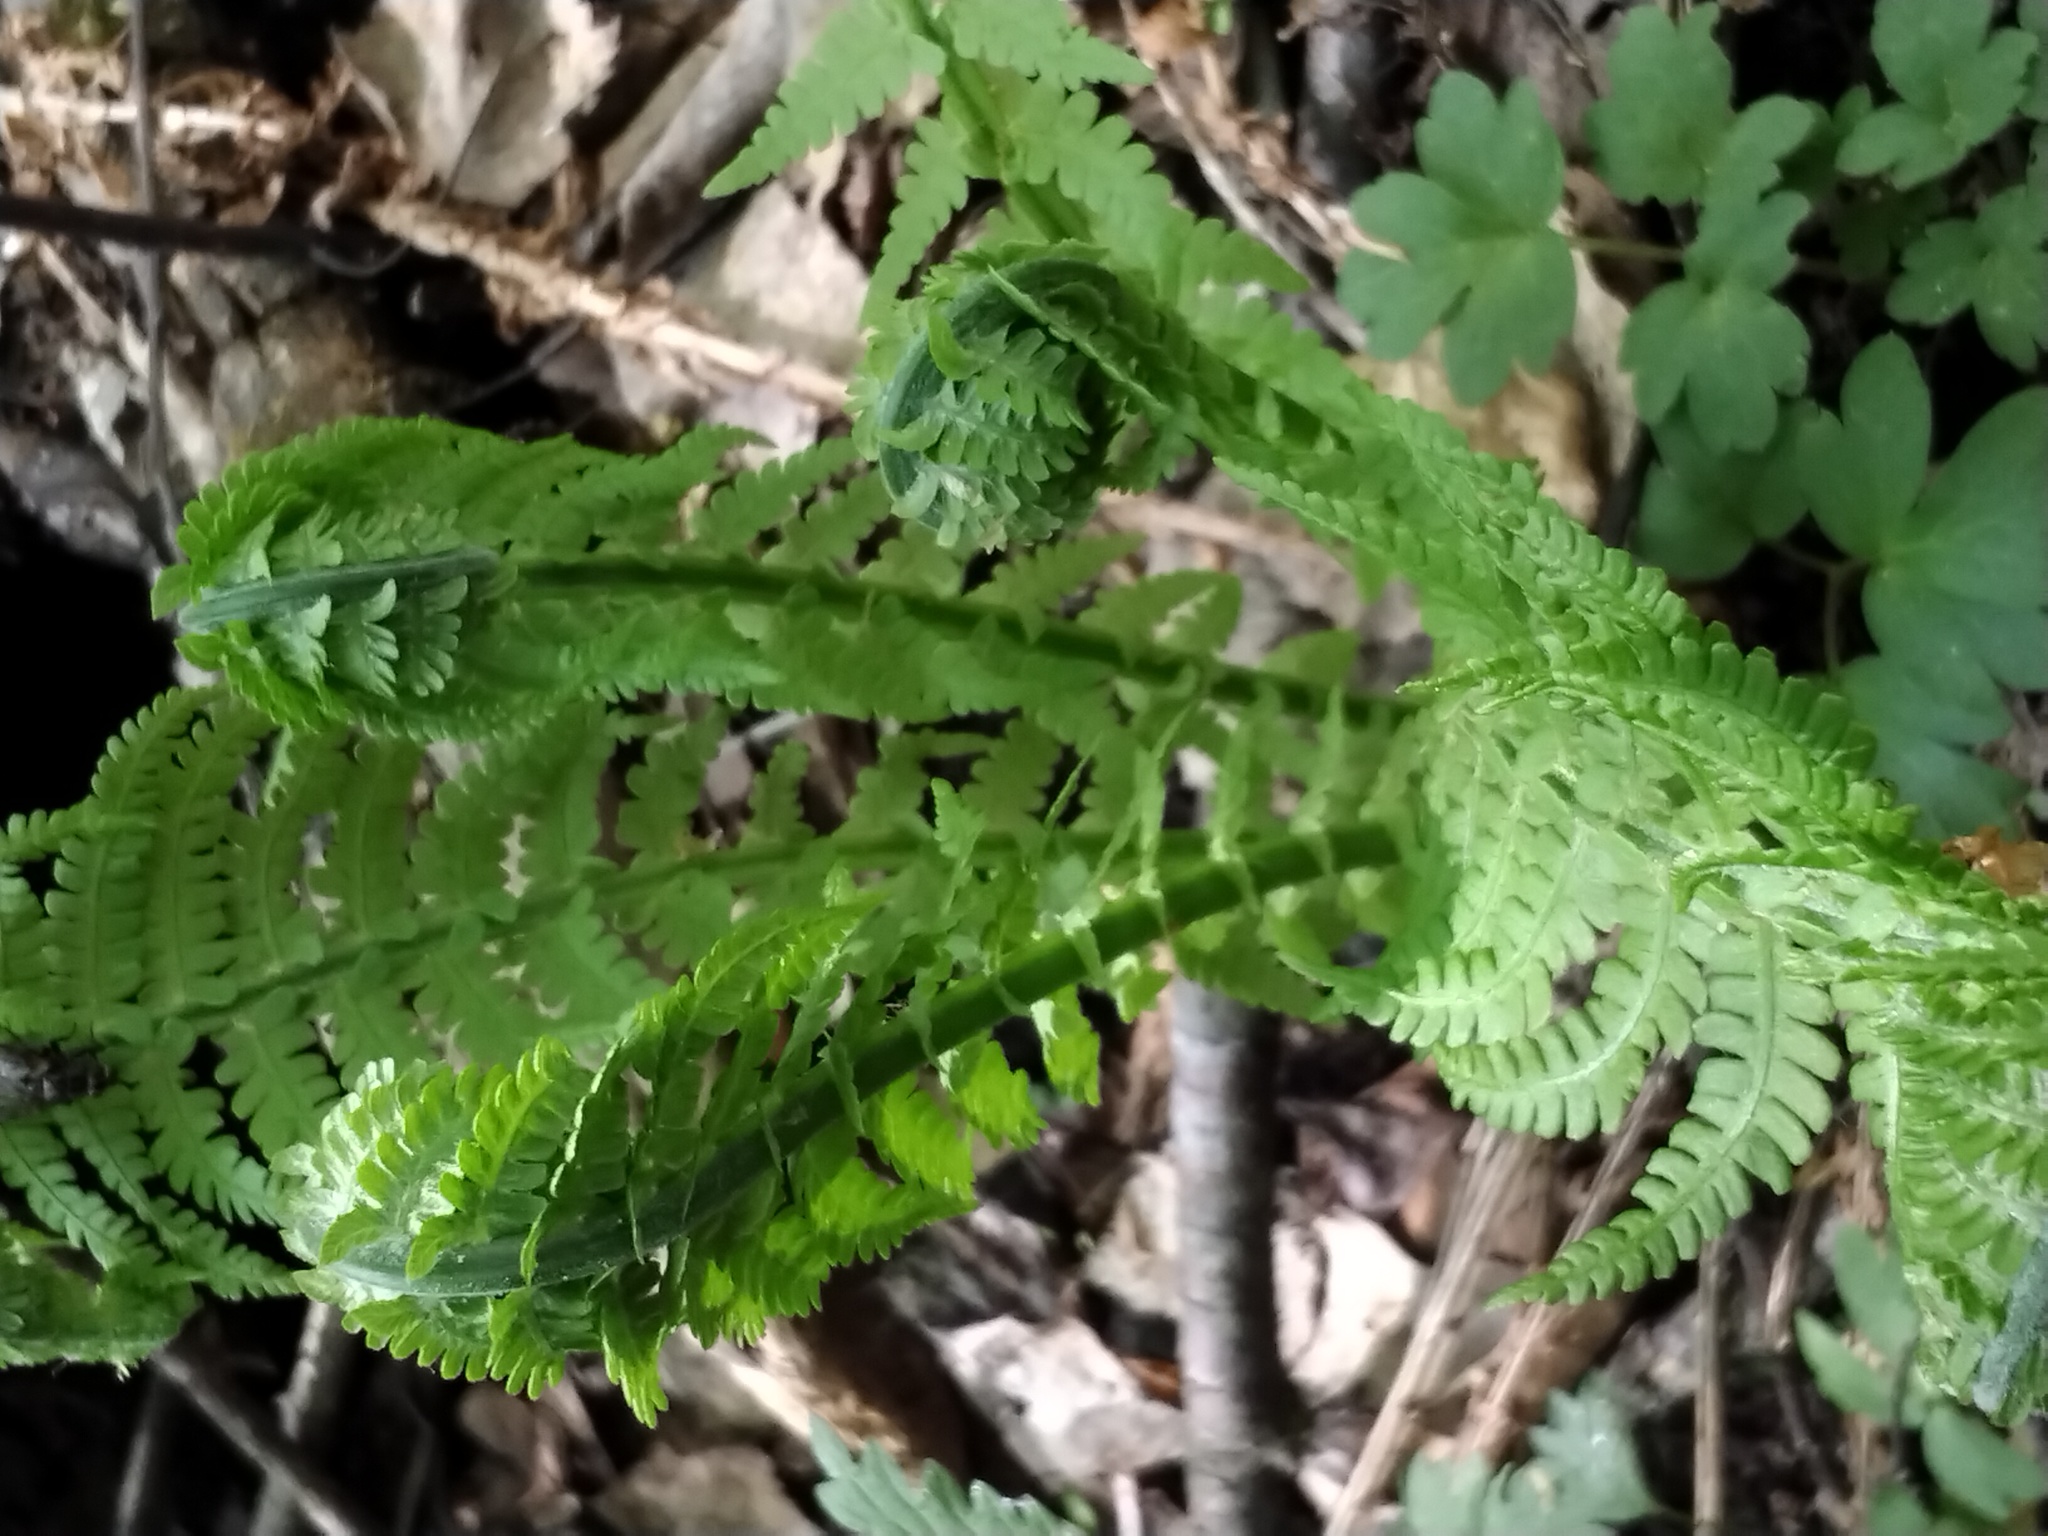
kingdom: Plantae
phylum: Tracheophyta
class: Polypodiopsida
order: Polypodiales
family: Onocleaceae
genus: Matteuccia
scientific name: Matteuccia struthiopteris
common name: Ostrich fern
